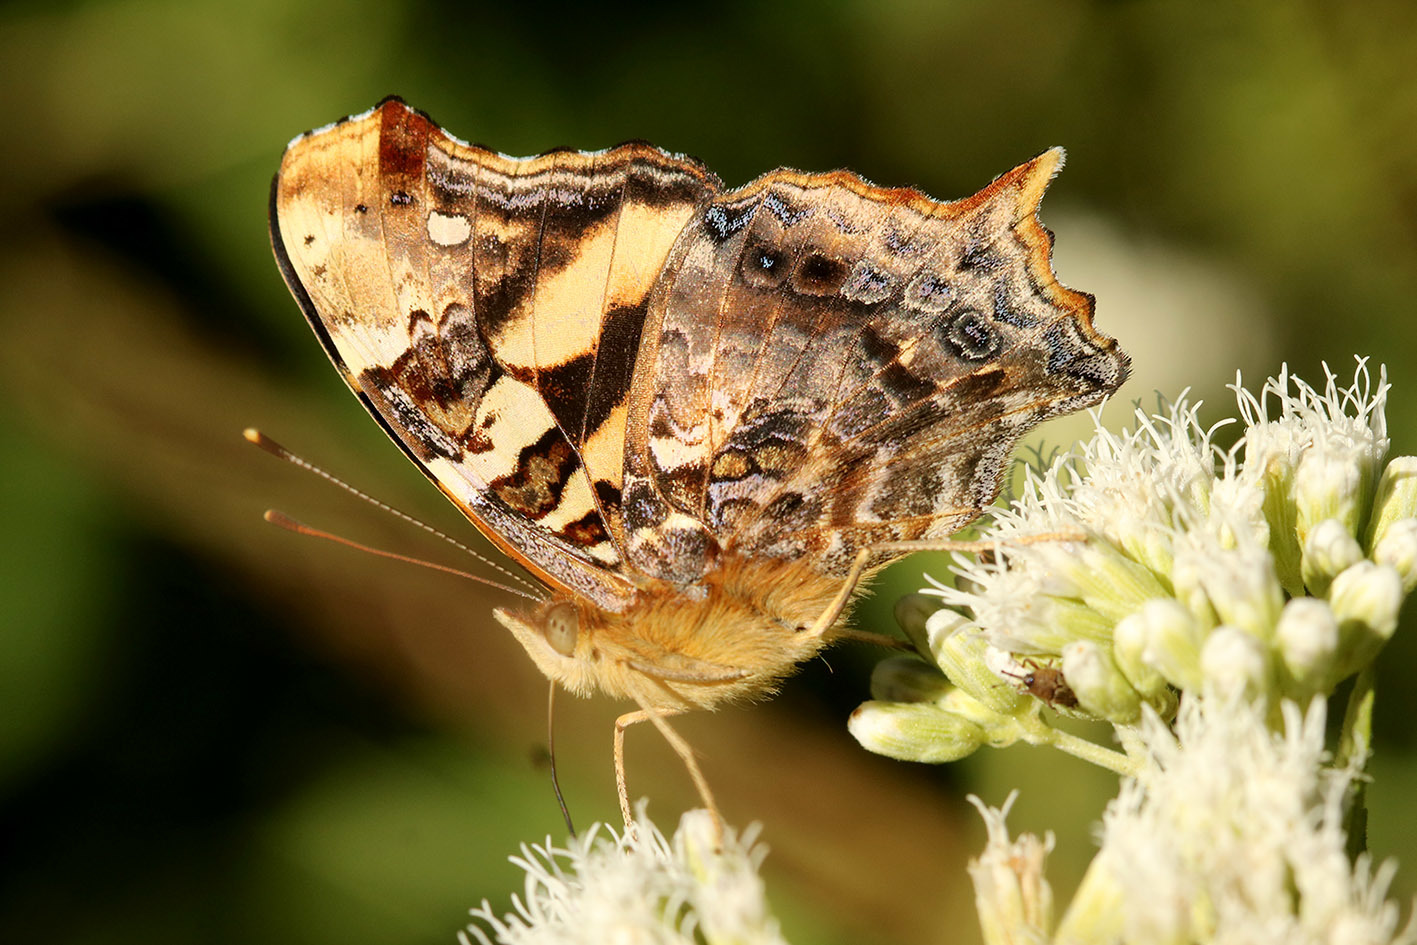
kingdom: Animalia
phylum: Arthropoda
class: Insecta
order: Lepidoptera
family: Nymphalidae
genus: Hypanartia
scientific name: Hypanartia bella
